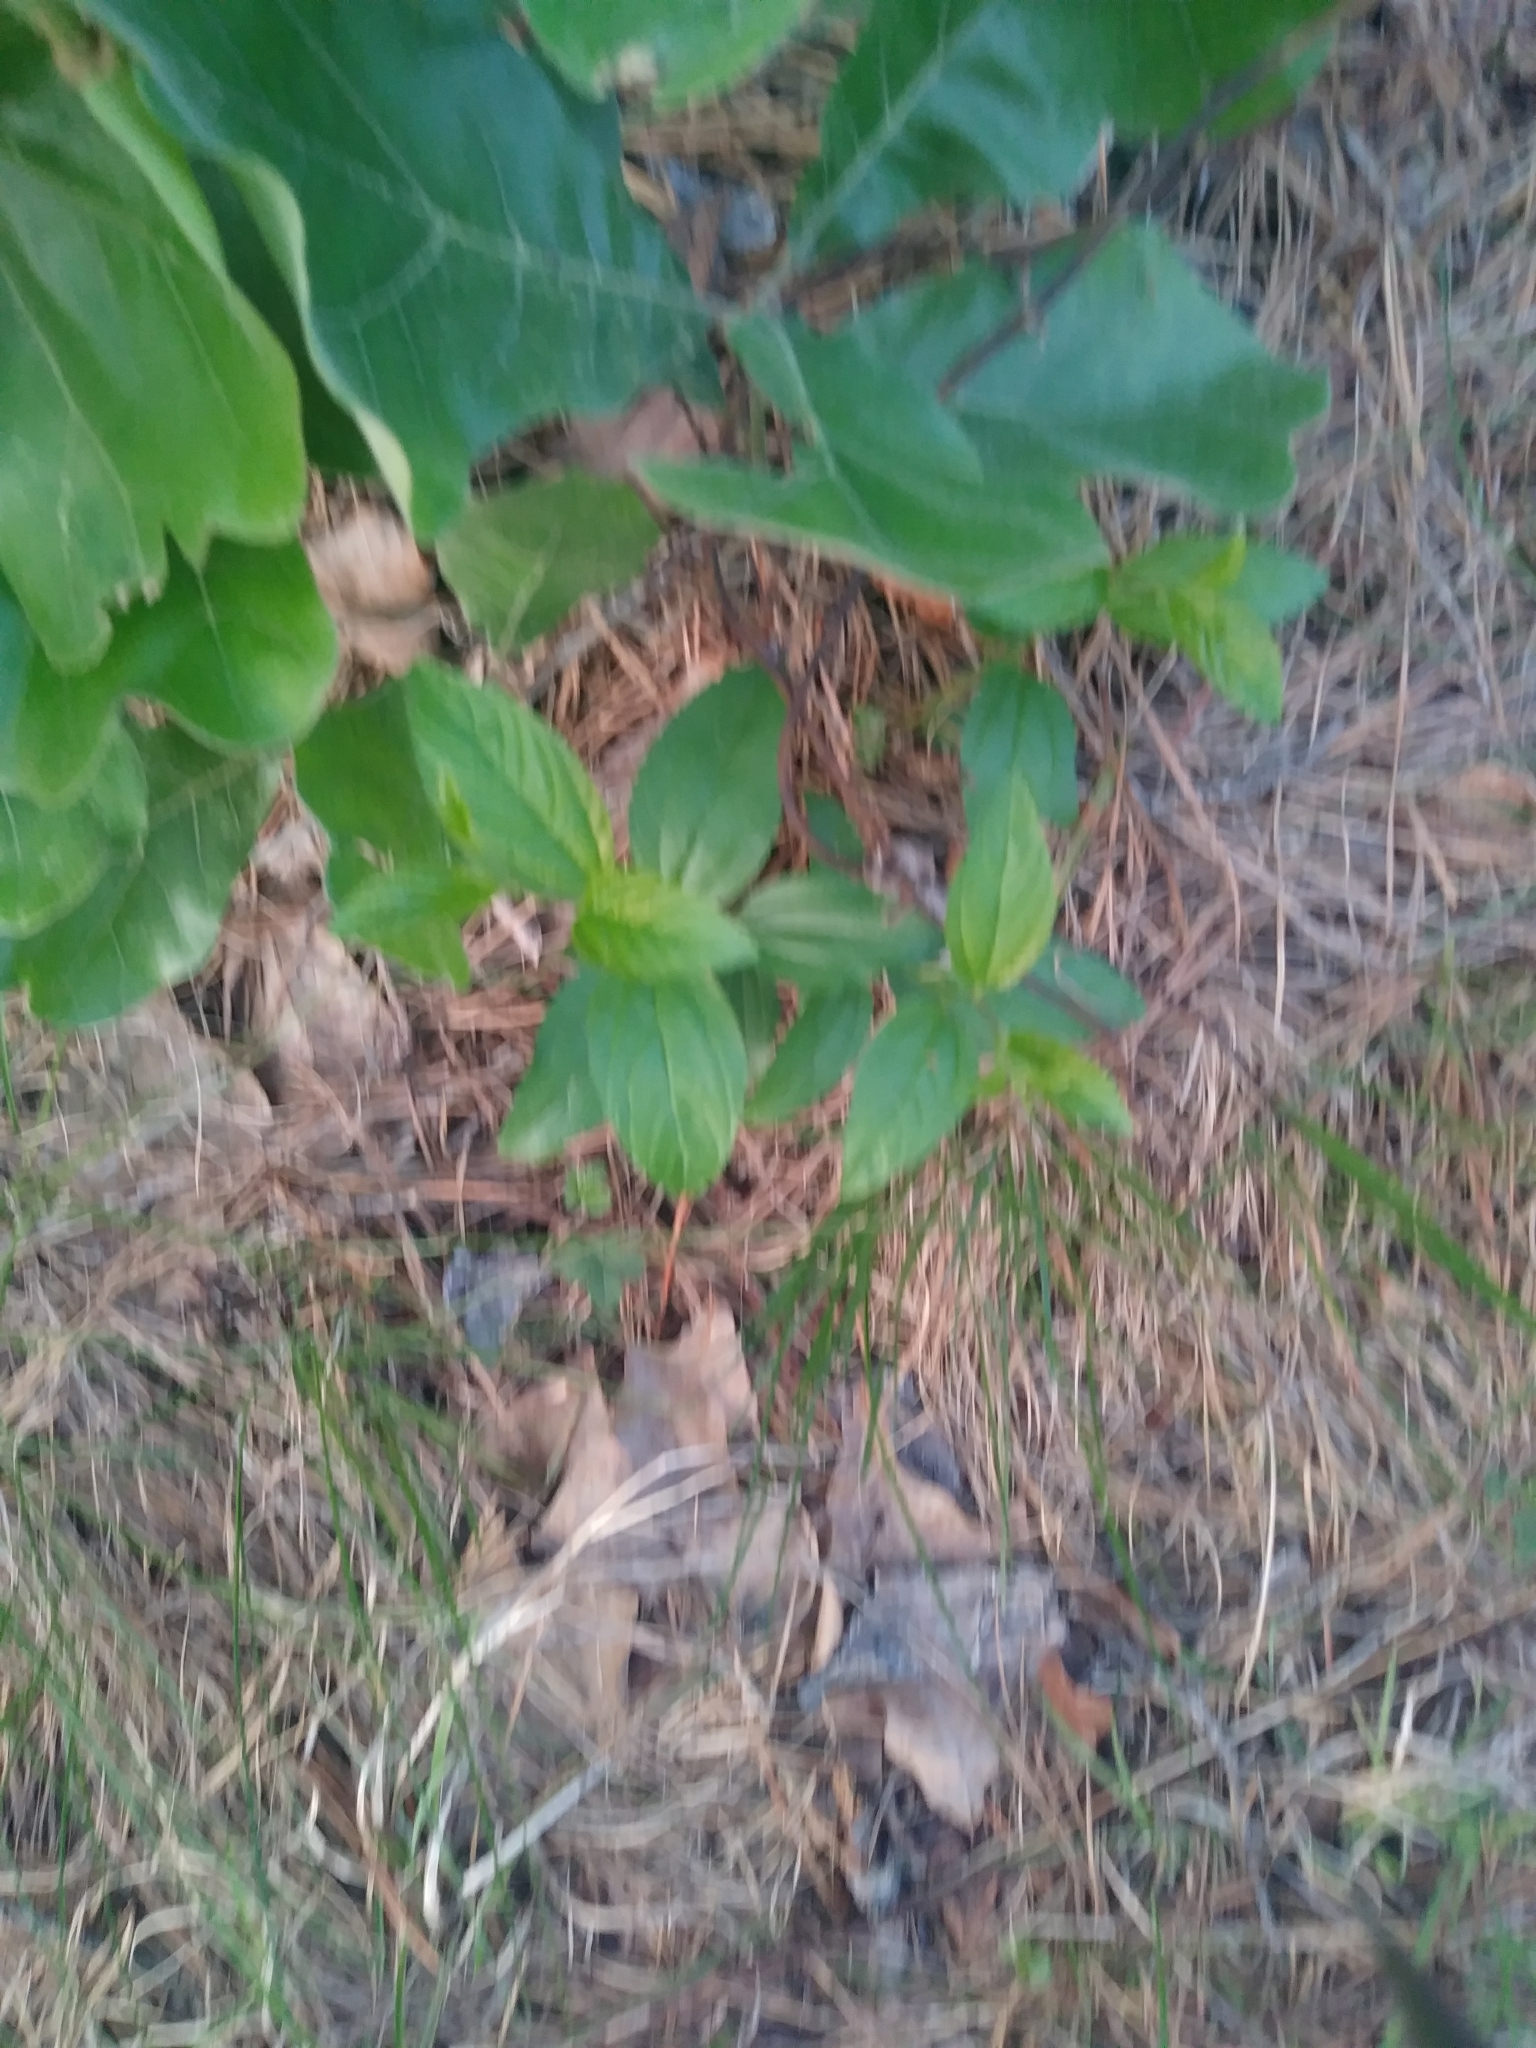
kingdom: Plantae
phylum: Tracheophyta
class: Magnoliopsida
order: Rosales
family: Rhamnaceae
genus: Ceanothus
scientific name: Ceanothus americanus
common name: Redroot
